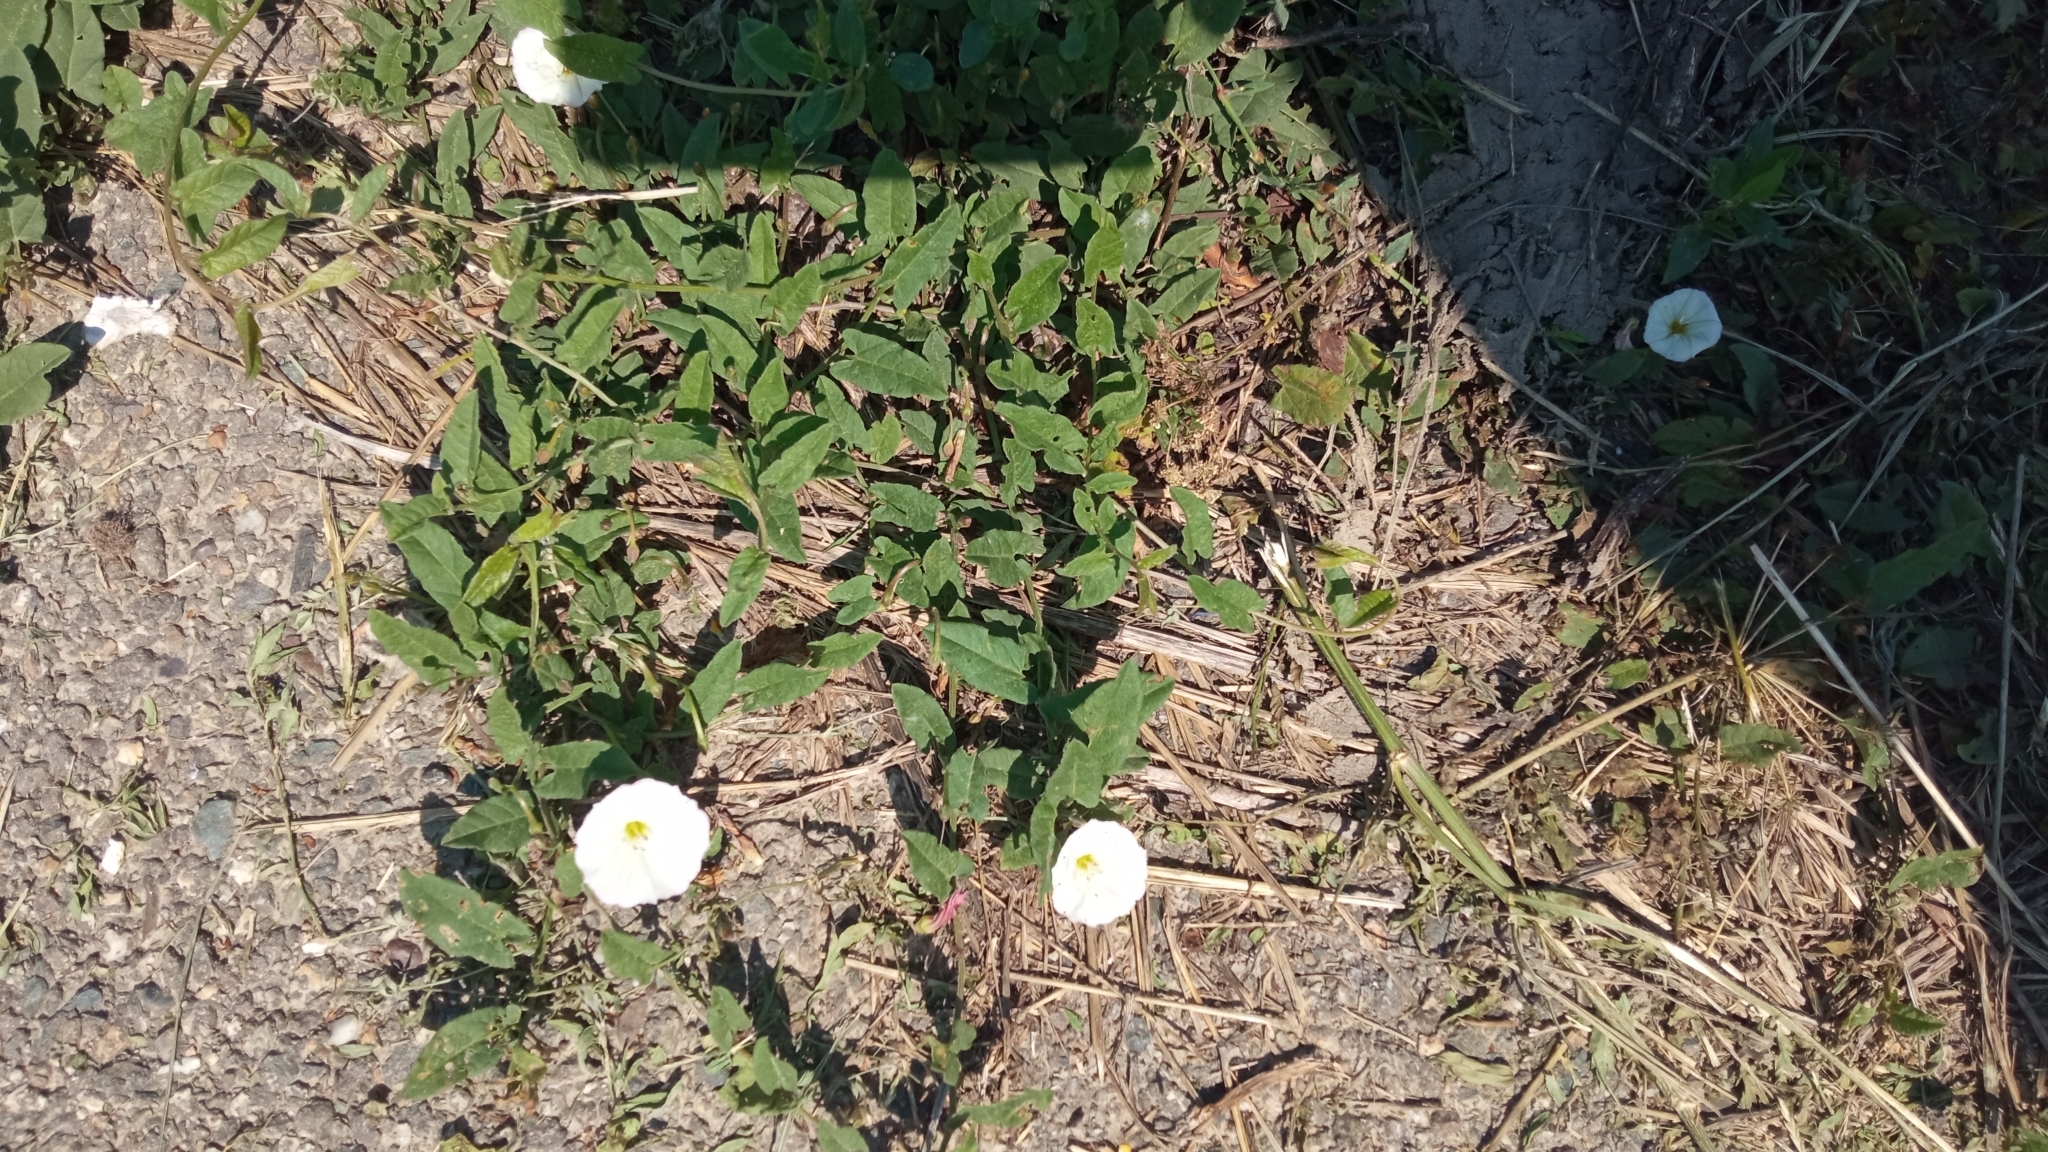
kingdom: Plantae
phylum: Tracheophyta
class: Magnoliopsida
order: Solanales
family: Convolvulaceae
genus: Convolvulus
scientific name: Convolvulus arvensis
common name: Field bindweed
